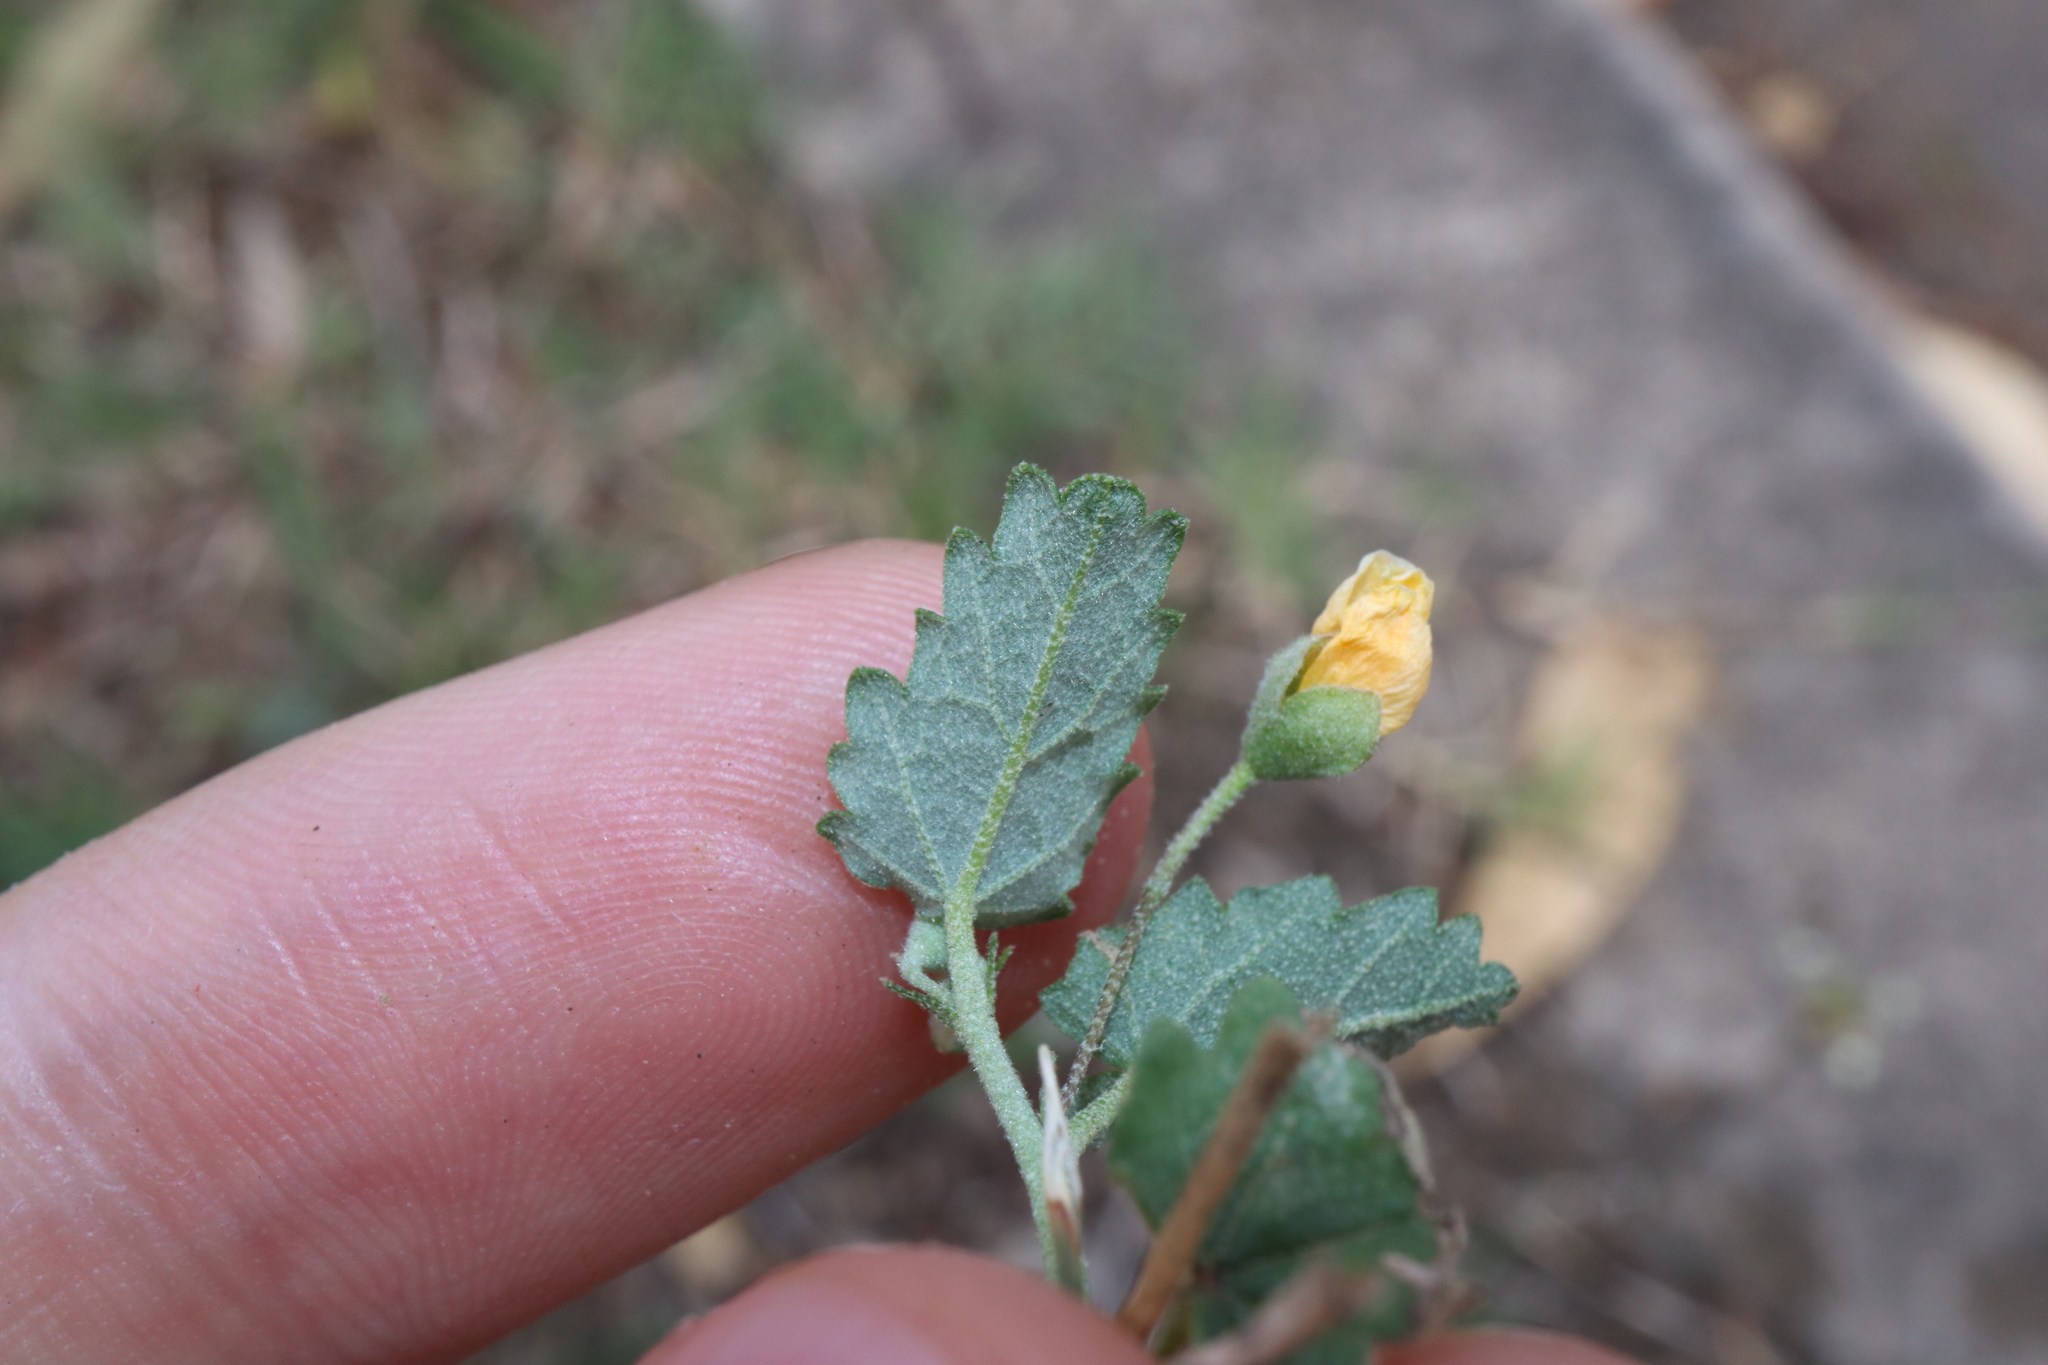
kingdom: Plantae
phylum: Tracheophyta
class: Magnoliopsida
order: Malvales
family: Malvaceae
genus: Sida
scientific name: Sida corrugata
